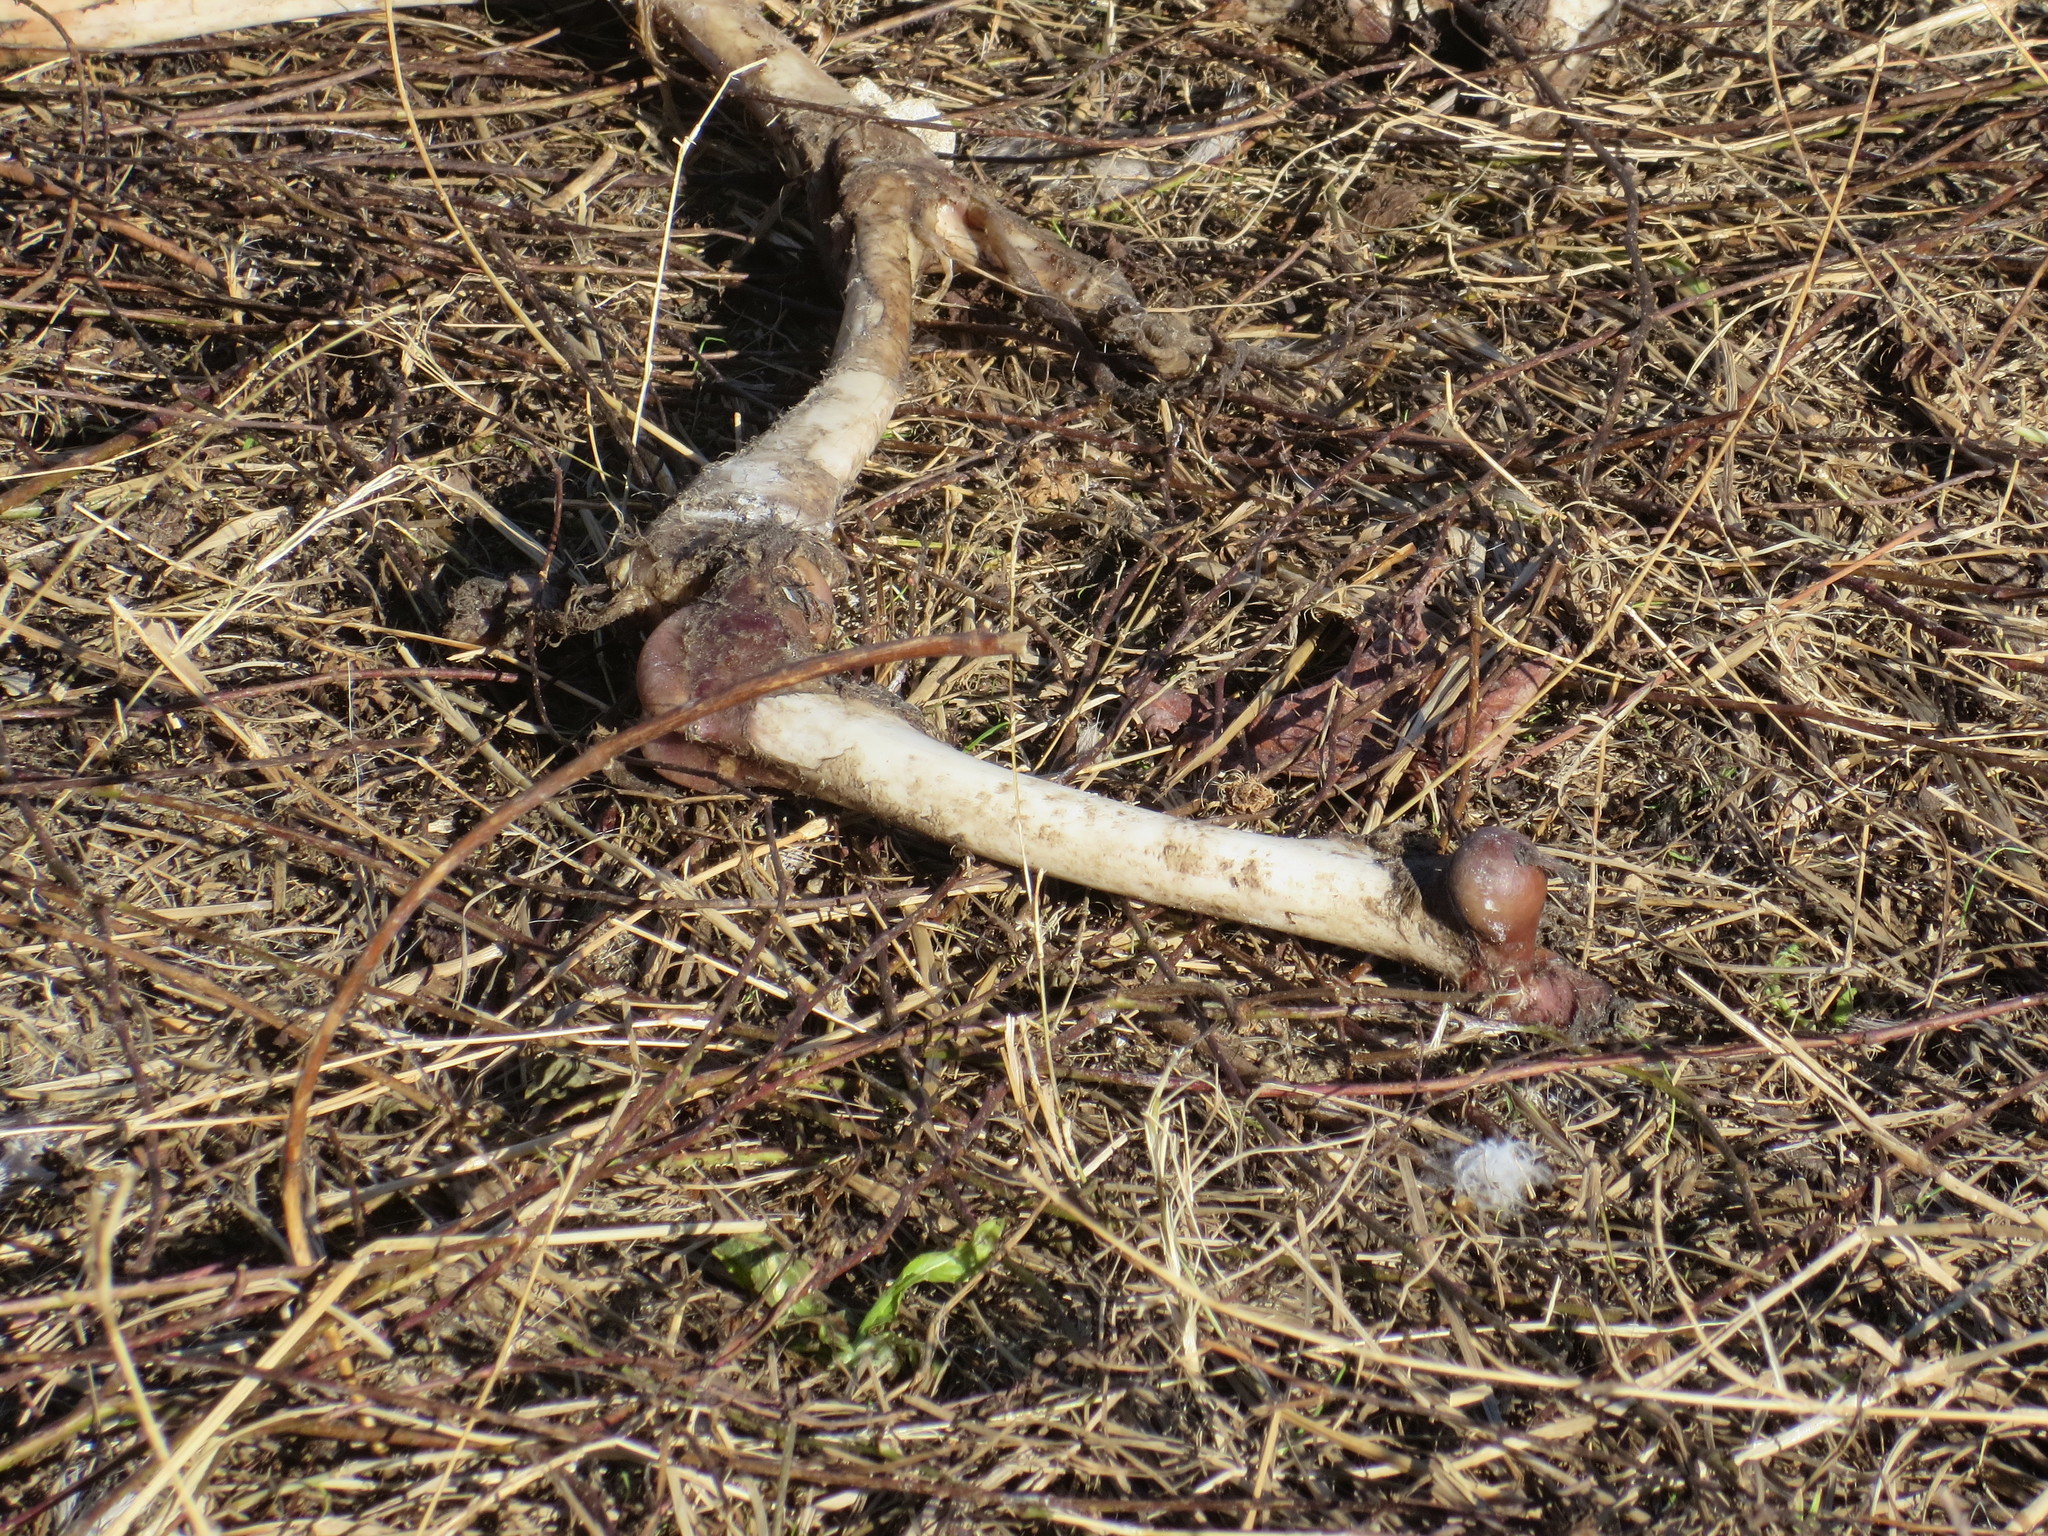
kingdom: Animalia
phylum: Chordata
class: Mammalia
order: Artiodactyla
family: Cervidae
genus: Odocoileus
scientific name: Odocoileus virginianus
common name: White-tailed deer
